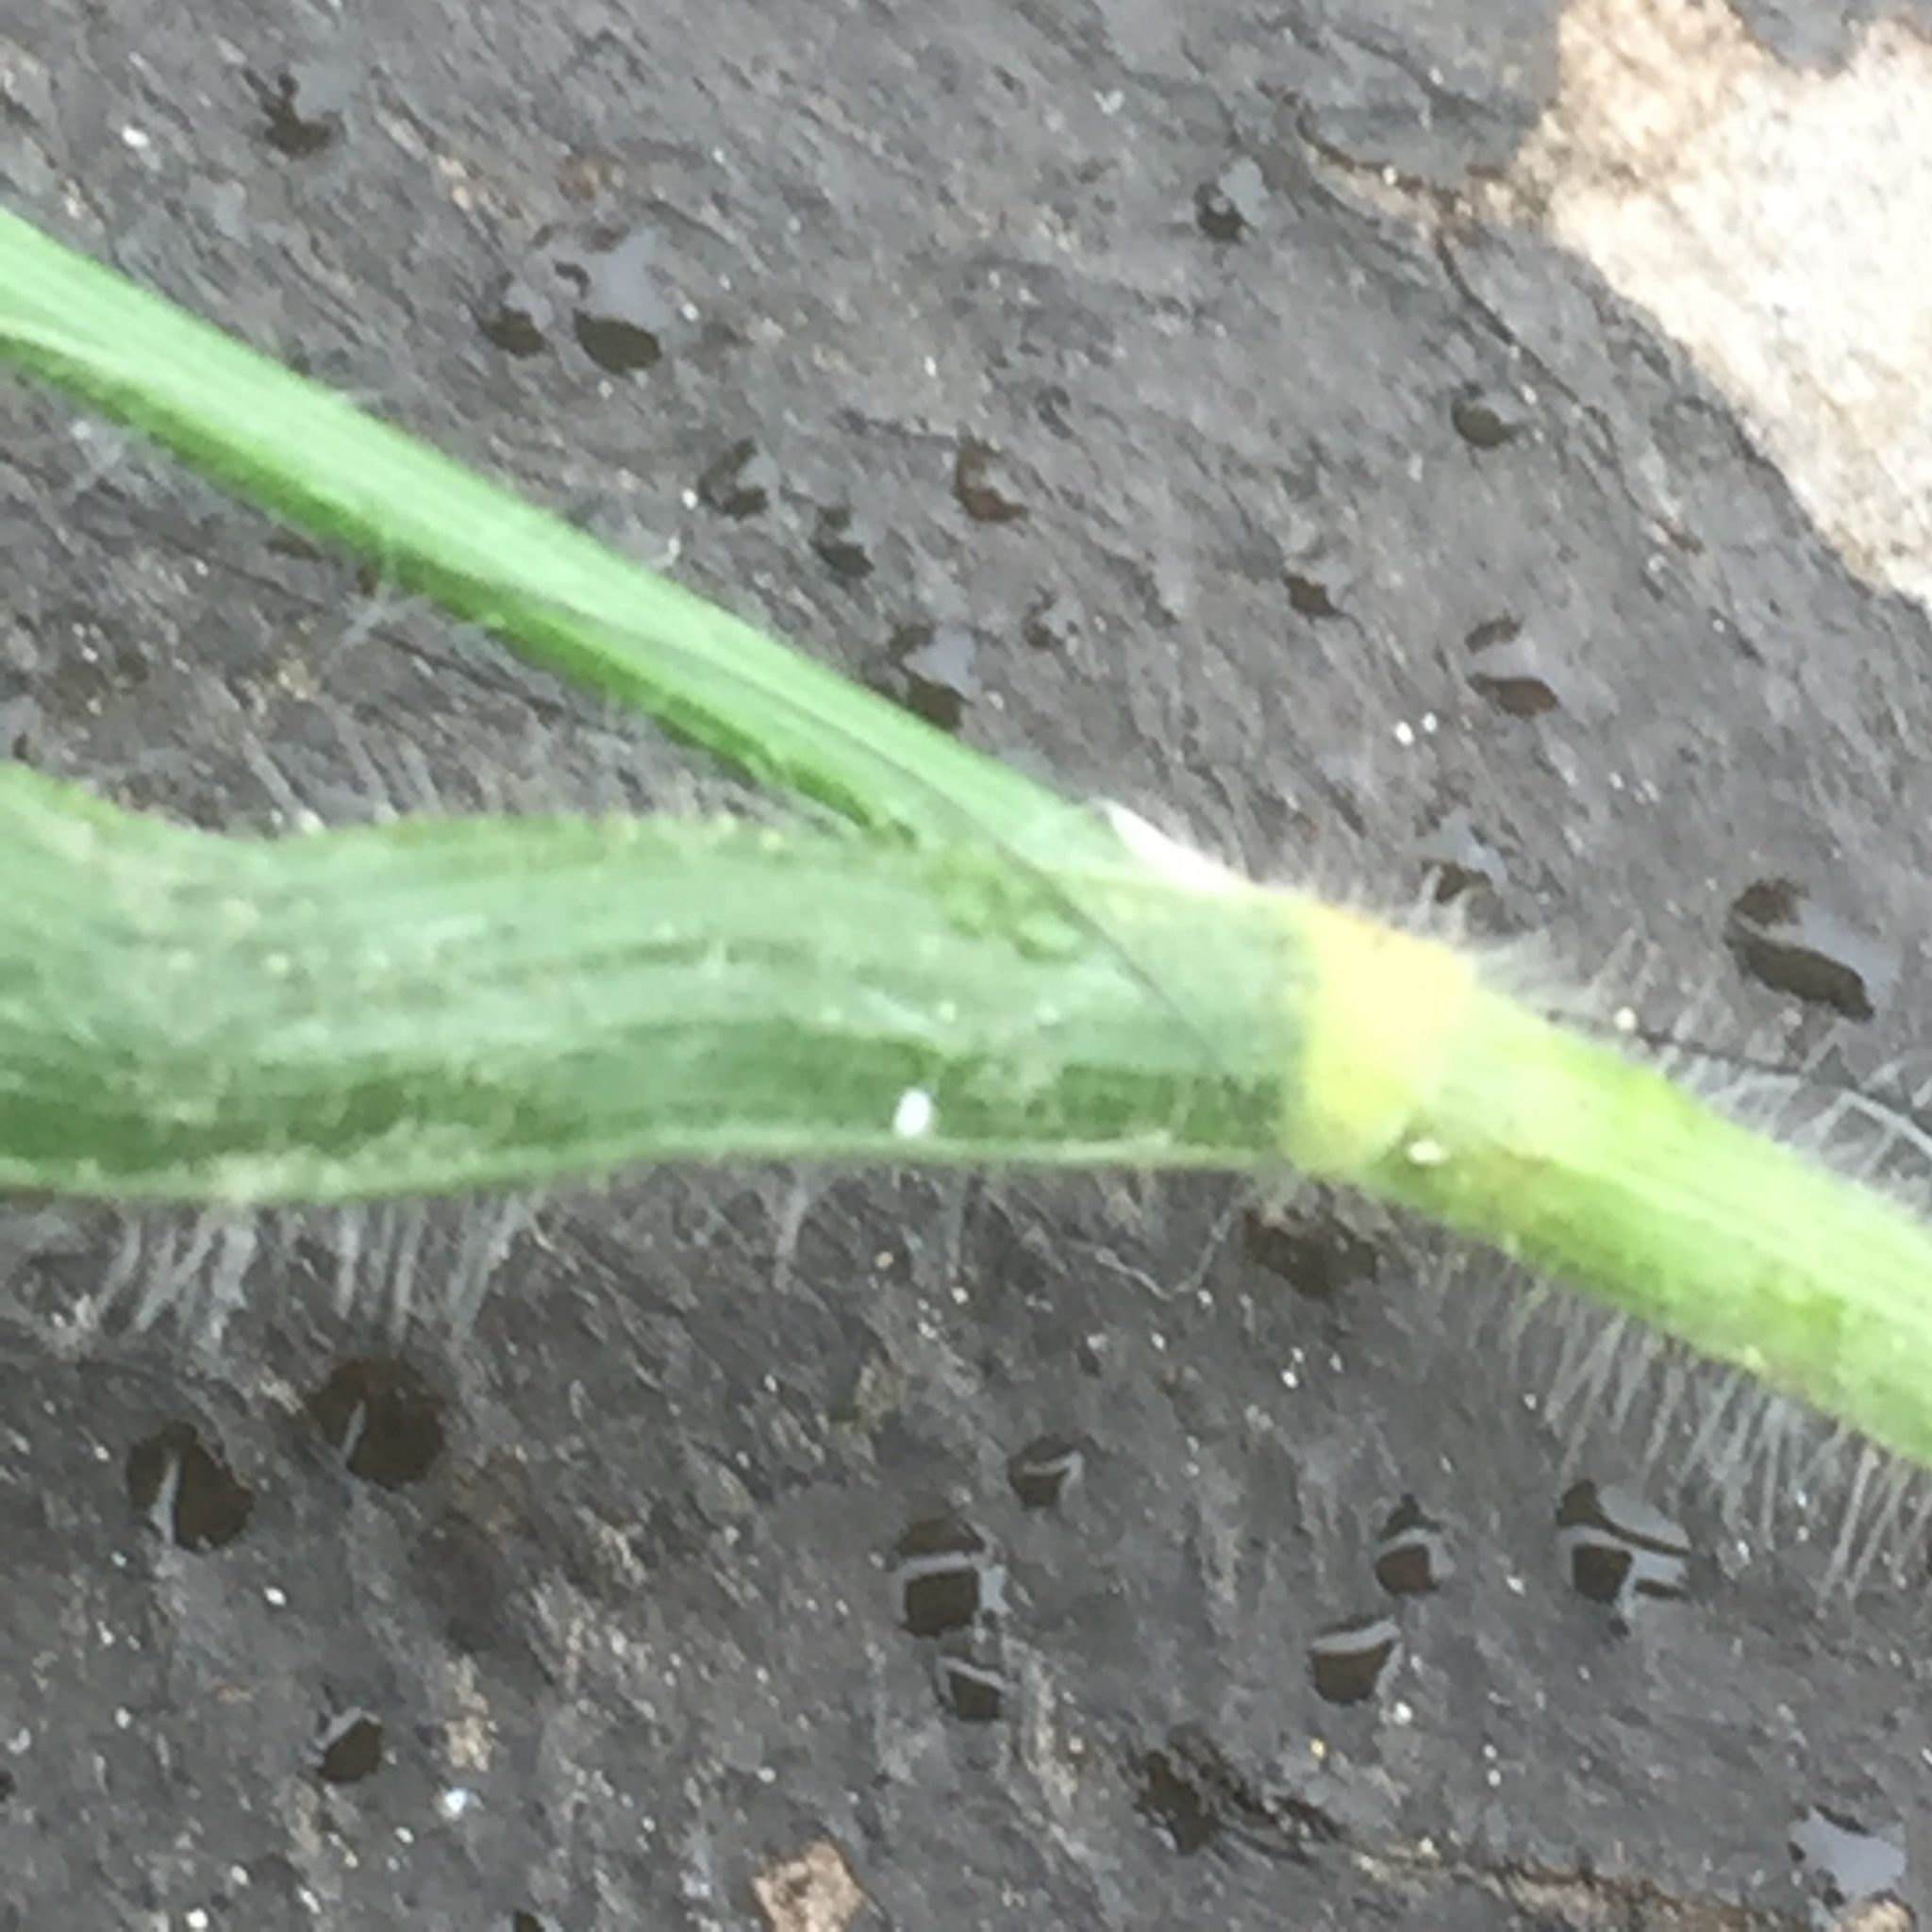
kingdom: Plantae
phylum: Tracheophyta
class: Liliopsida
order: Poales
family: Poaceae
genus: Brachypodium
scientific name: Brachypodium sylvaticum
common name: False-brome
